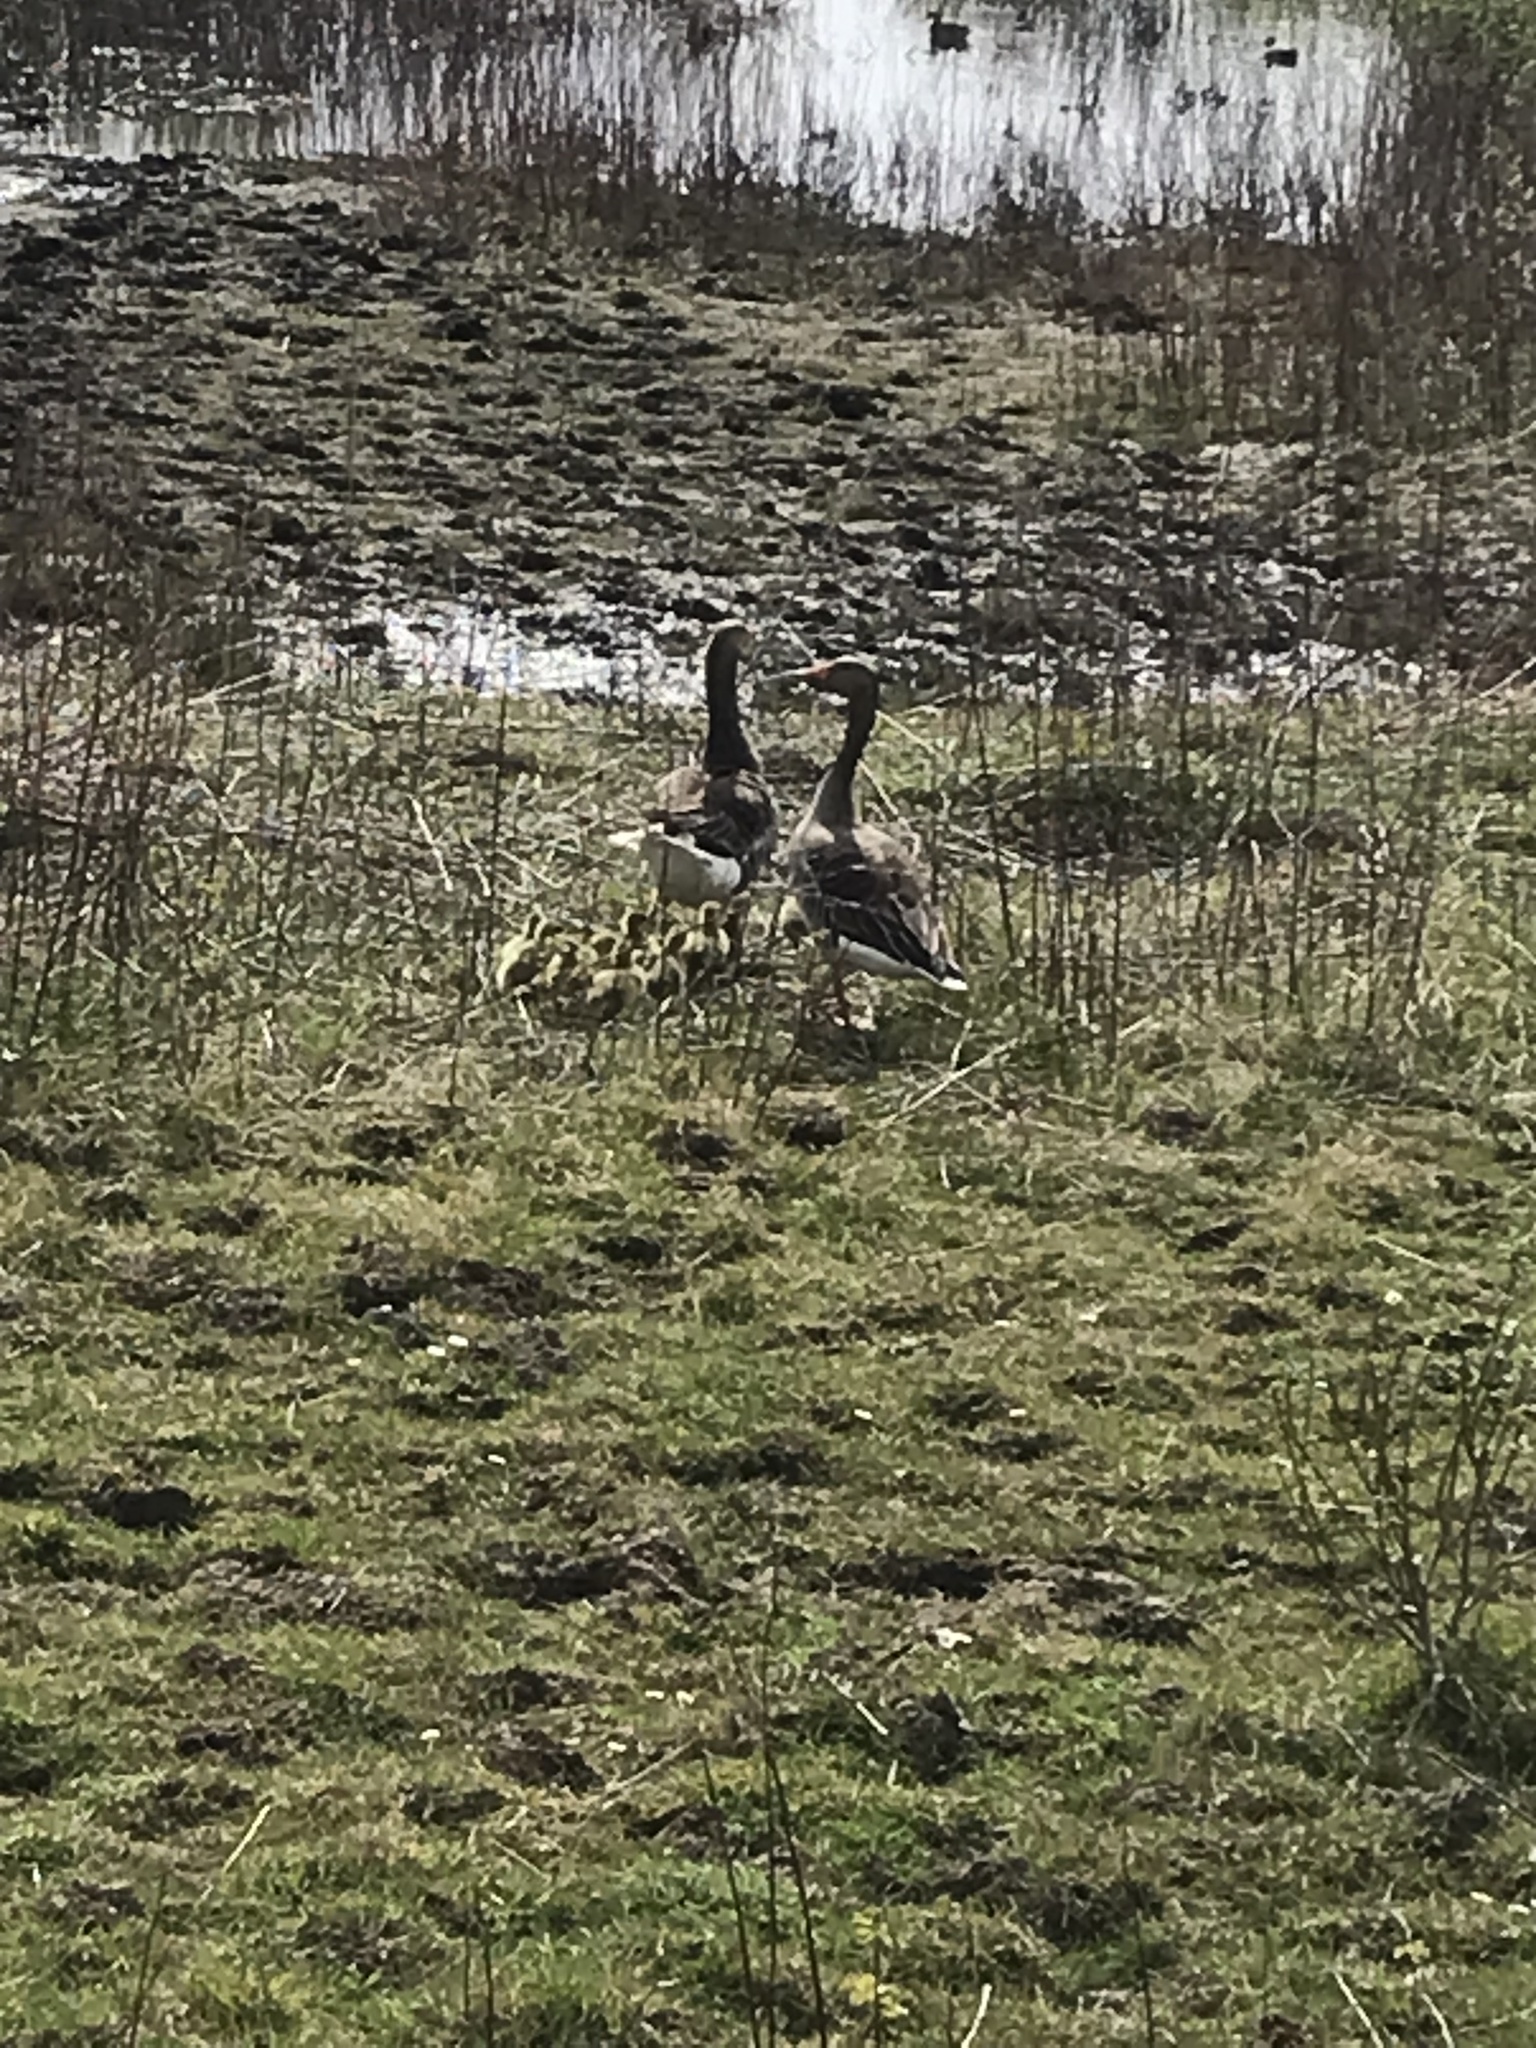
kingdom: Animalia
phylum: Chordata
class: Aves
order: Anseriformes
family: Anatidae
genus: Anser
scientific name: Anser anser
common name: Greylag goose
